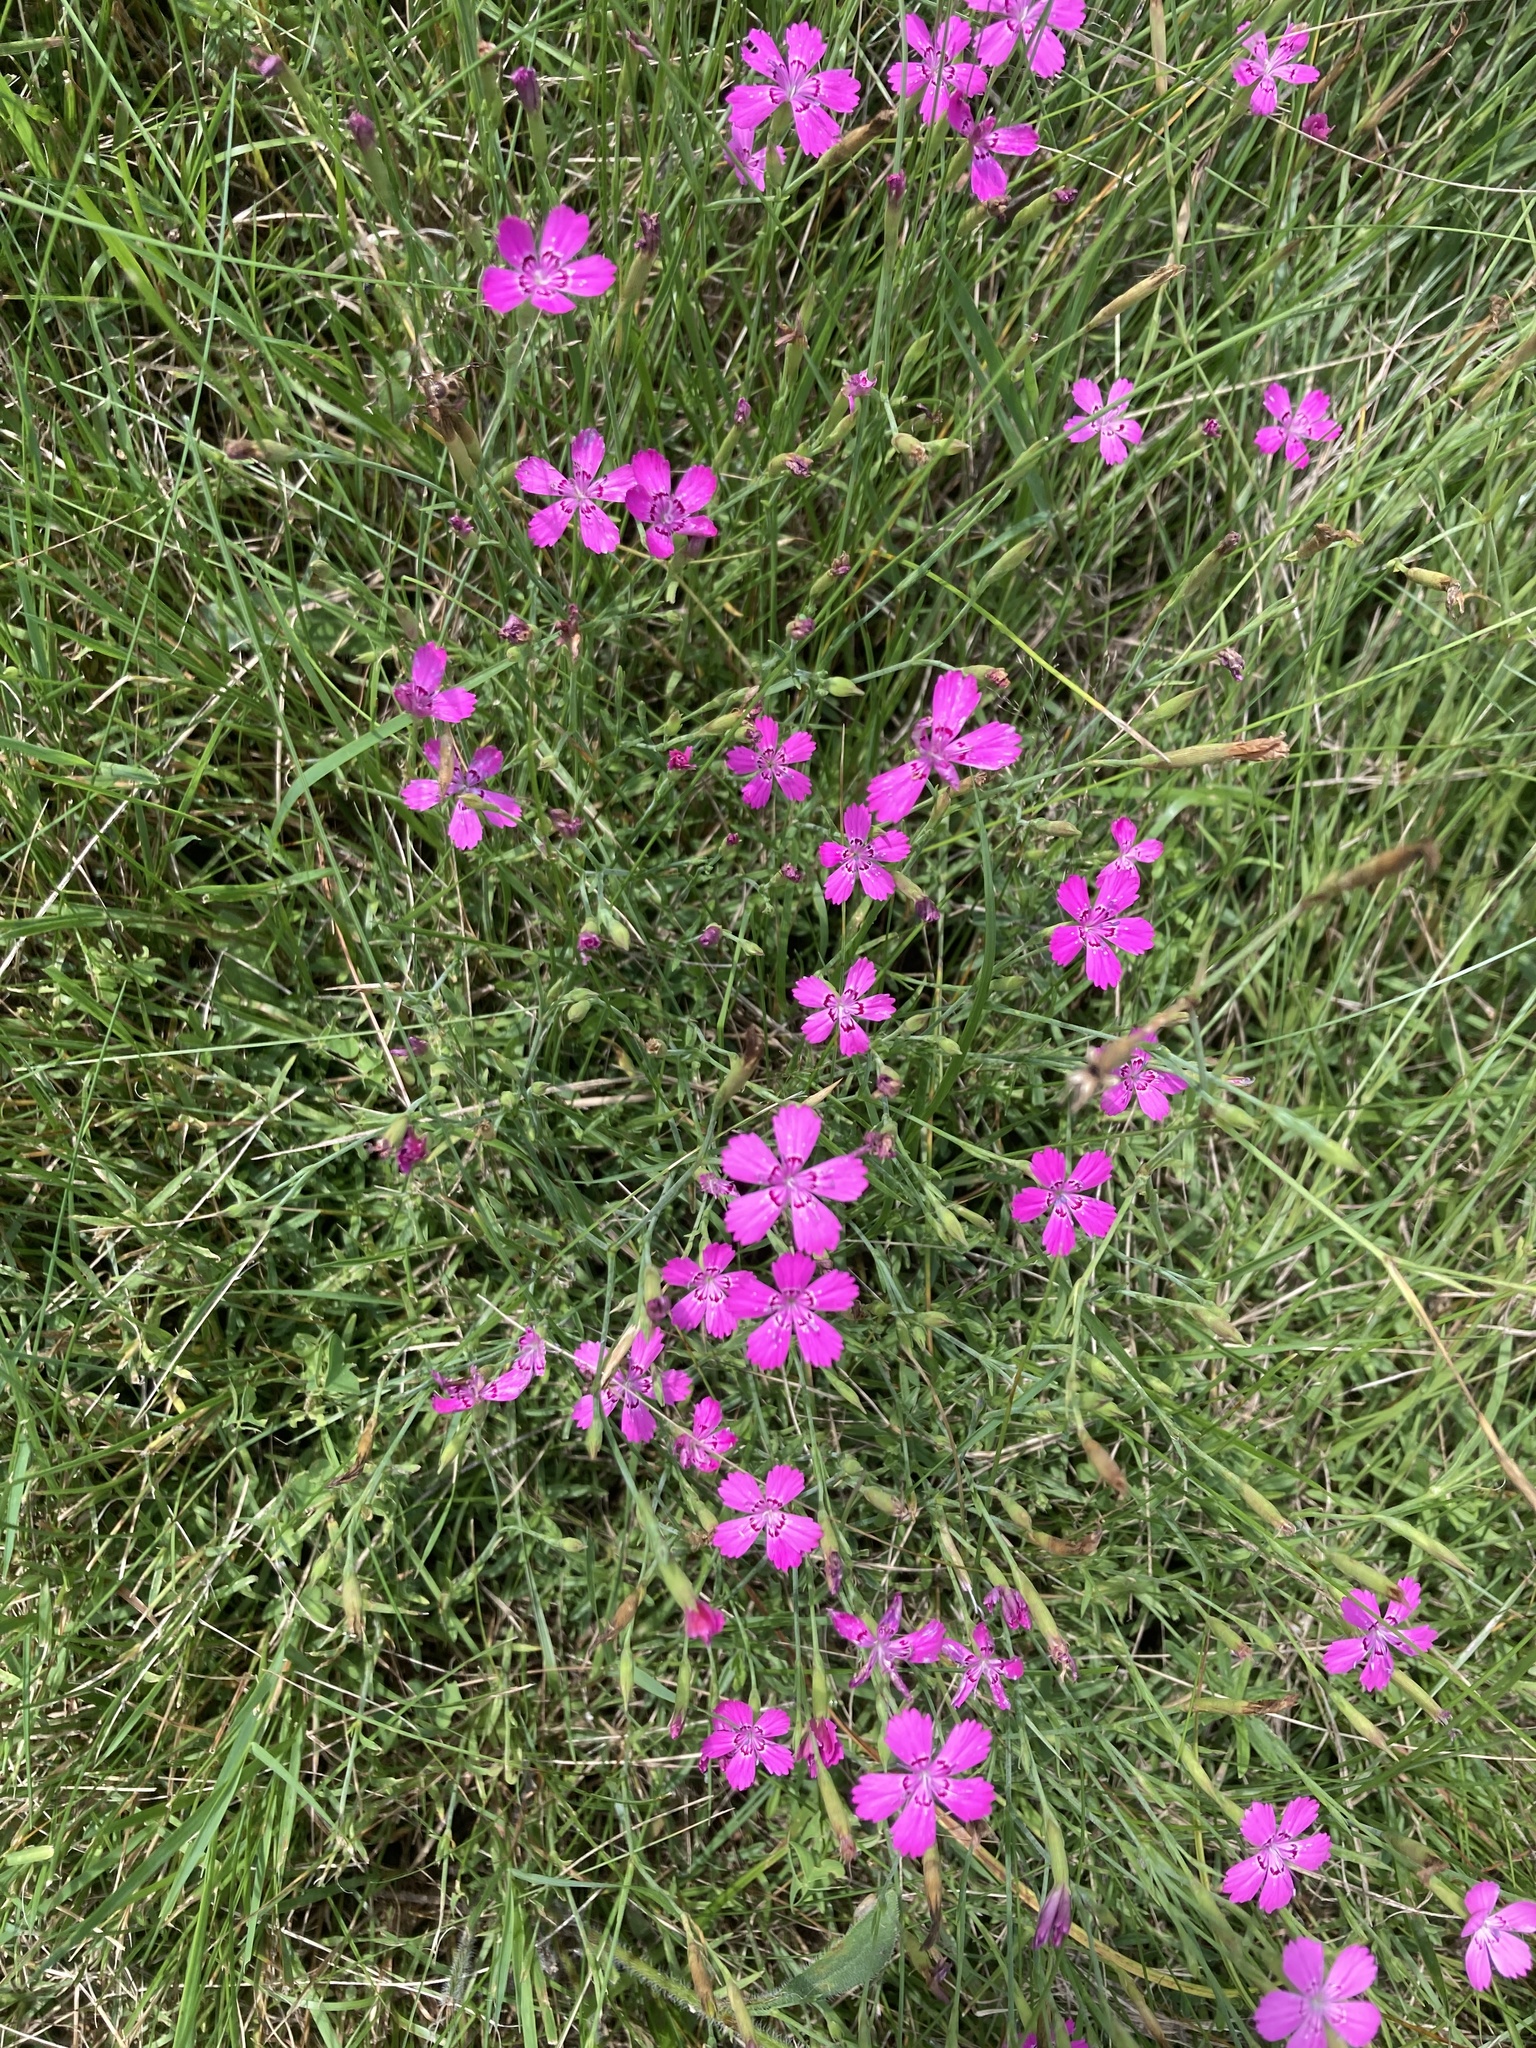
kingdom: Plantae
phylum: Tracheophyta
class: Magnoliopsida
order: Caryophyllales
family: Caryophyllaceae
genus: Dianthus
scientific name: Dianthus deltoides
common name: Maiden pink
